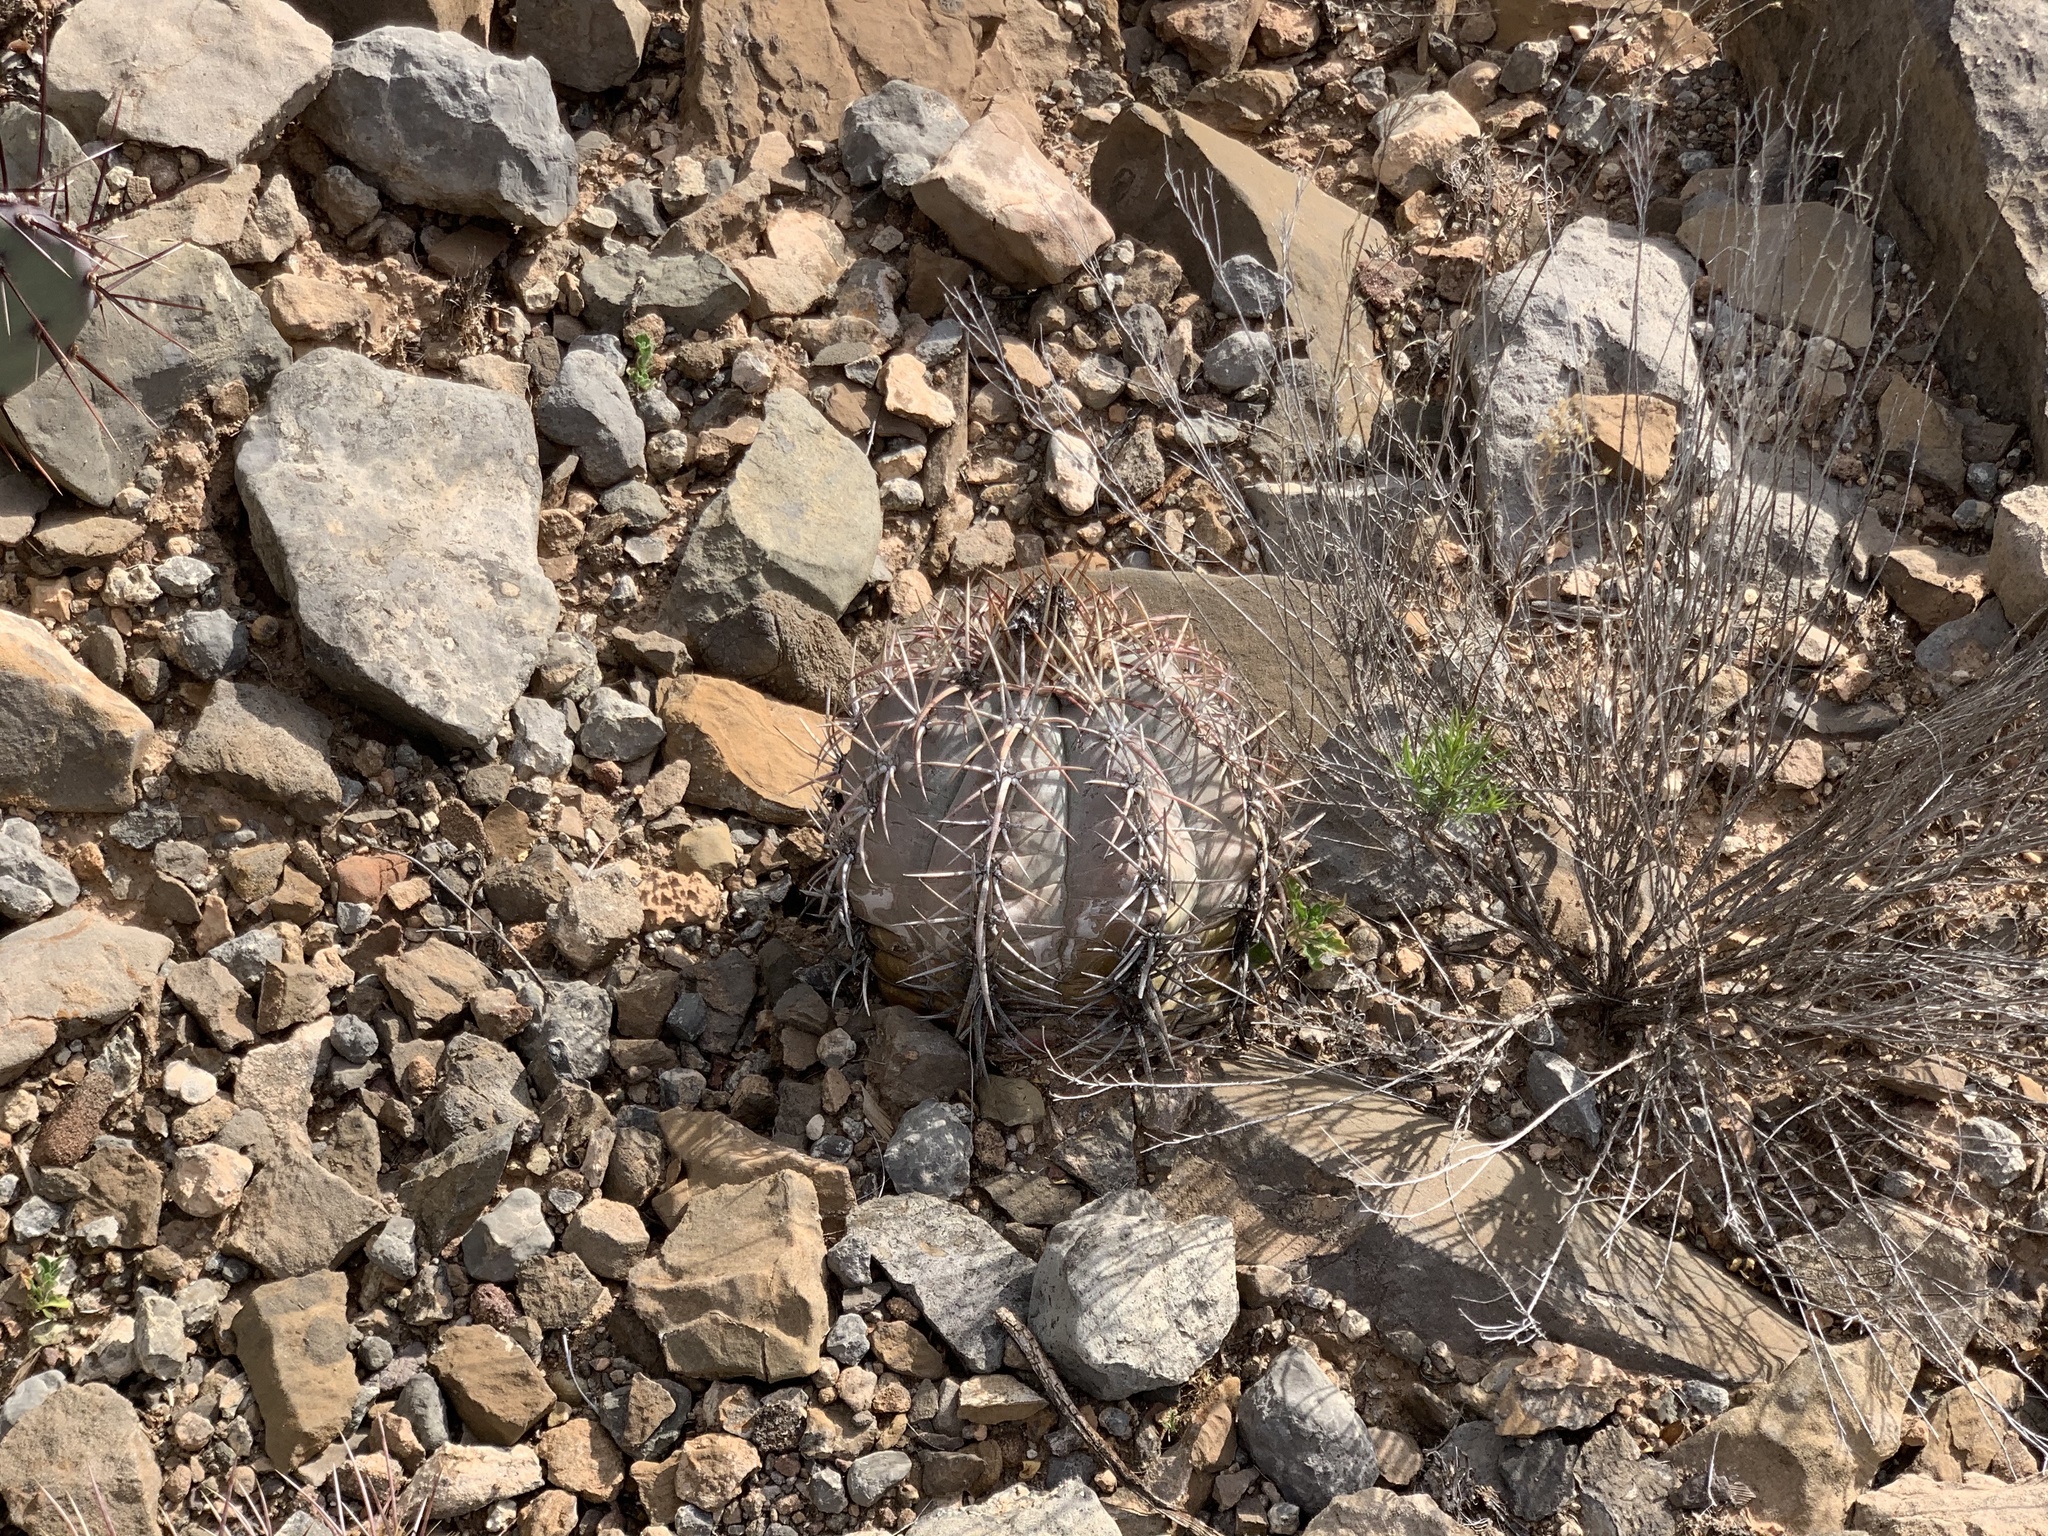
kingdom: Plantae
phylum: Tracheophyta
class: Magnoliopsida
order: Caryophyllales
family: Cactaceae
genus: Echinocactus
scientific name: Echinocactus horizonthalonius
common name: Devilshead
